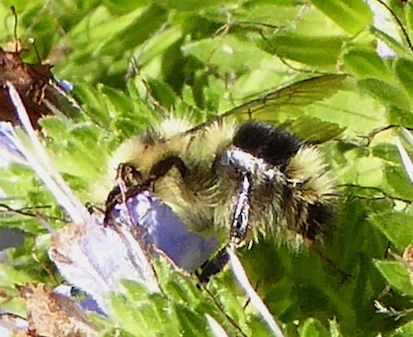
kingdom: Animalia
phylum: Arthropoda
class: Insecta
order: Hymenoptera
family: Apidae
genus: Bombus
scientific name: Bombus melanopygus
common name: Black tail bumble bee
